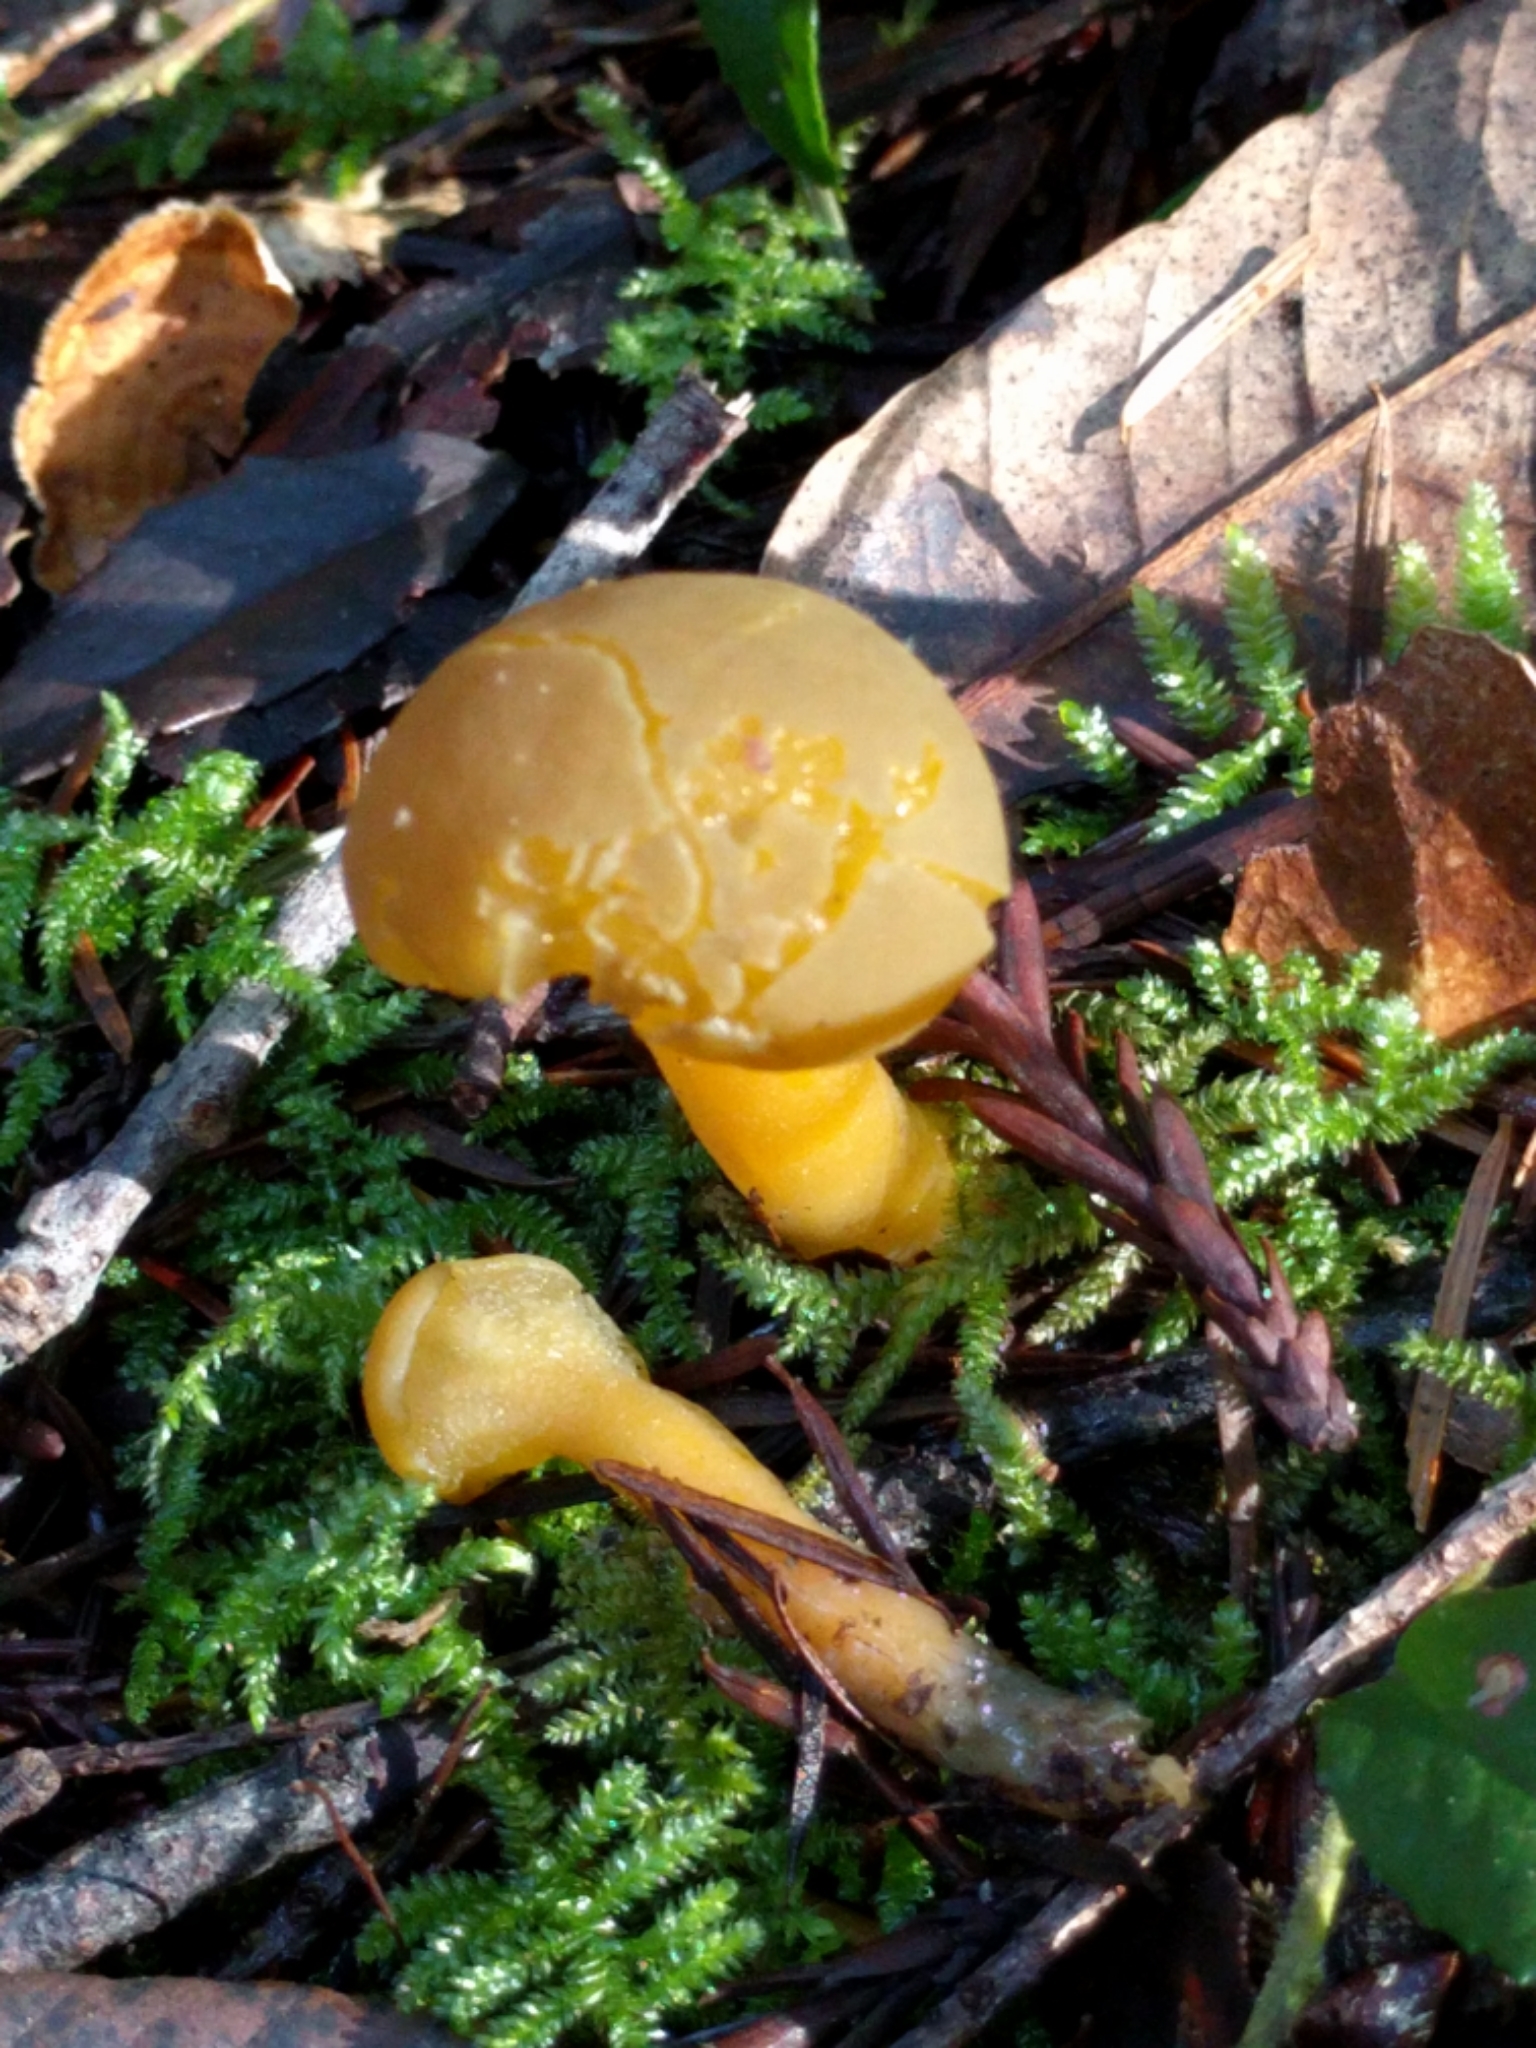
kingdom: Fungi
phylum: Ascomycota
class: Leotiomycetes
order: Leotiales
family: Leotiaceae
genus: Leotia
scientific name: Leotia lubrica
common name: Jellybaby
